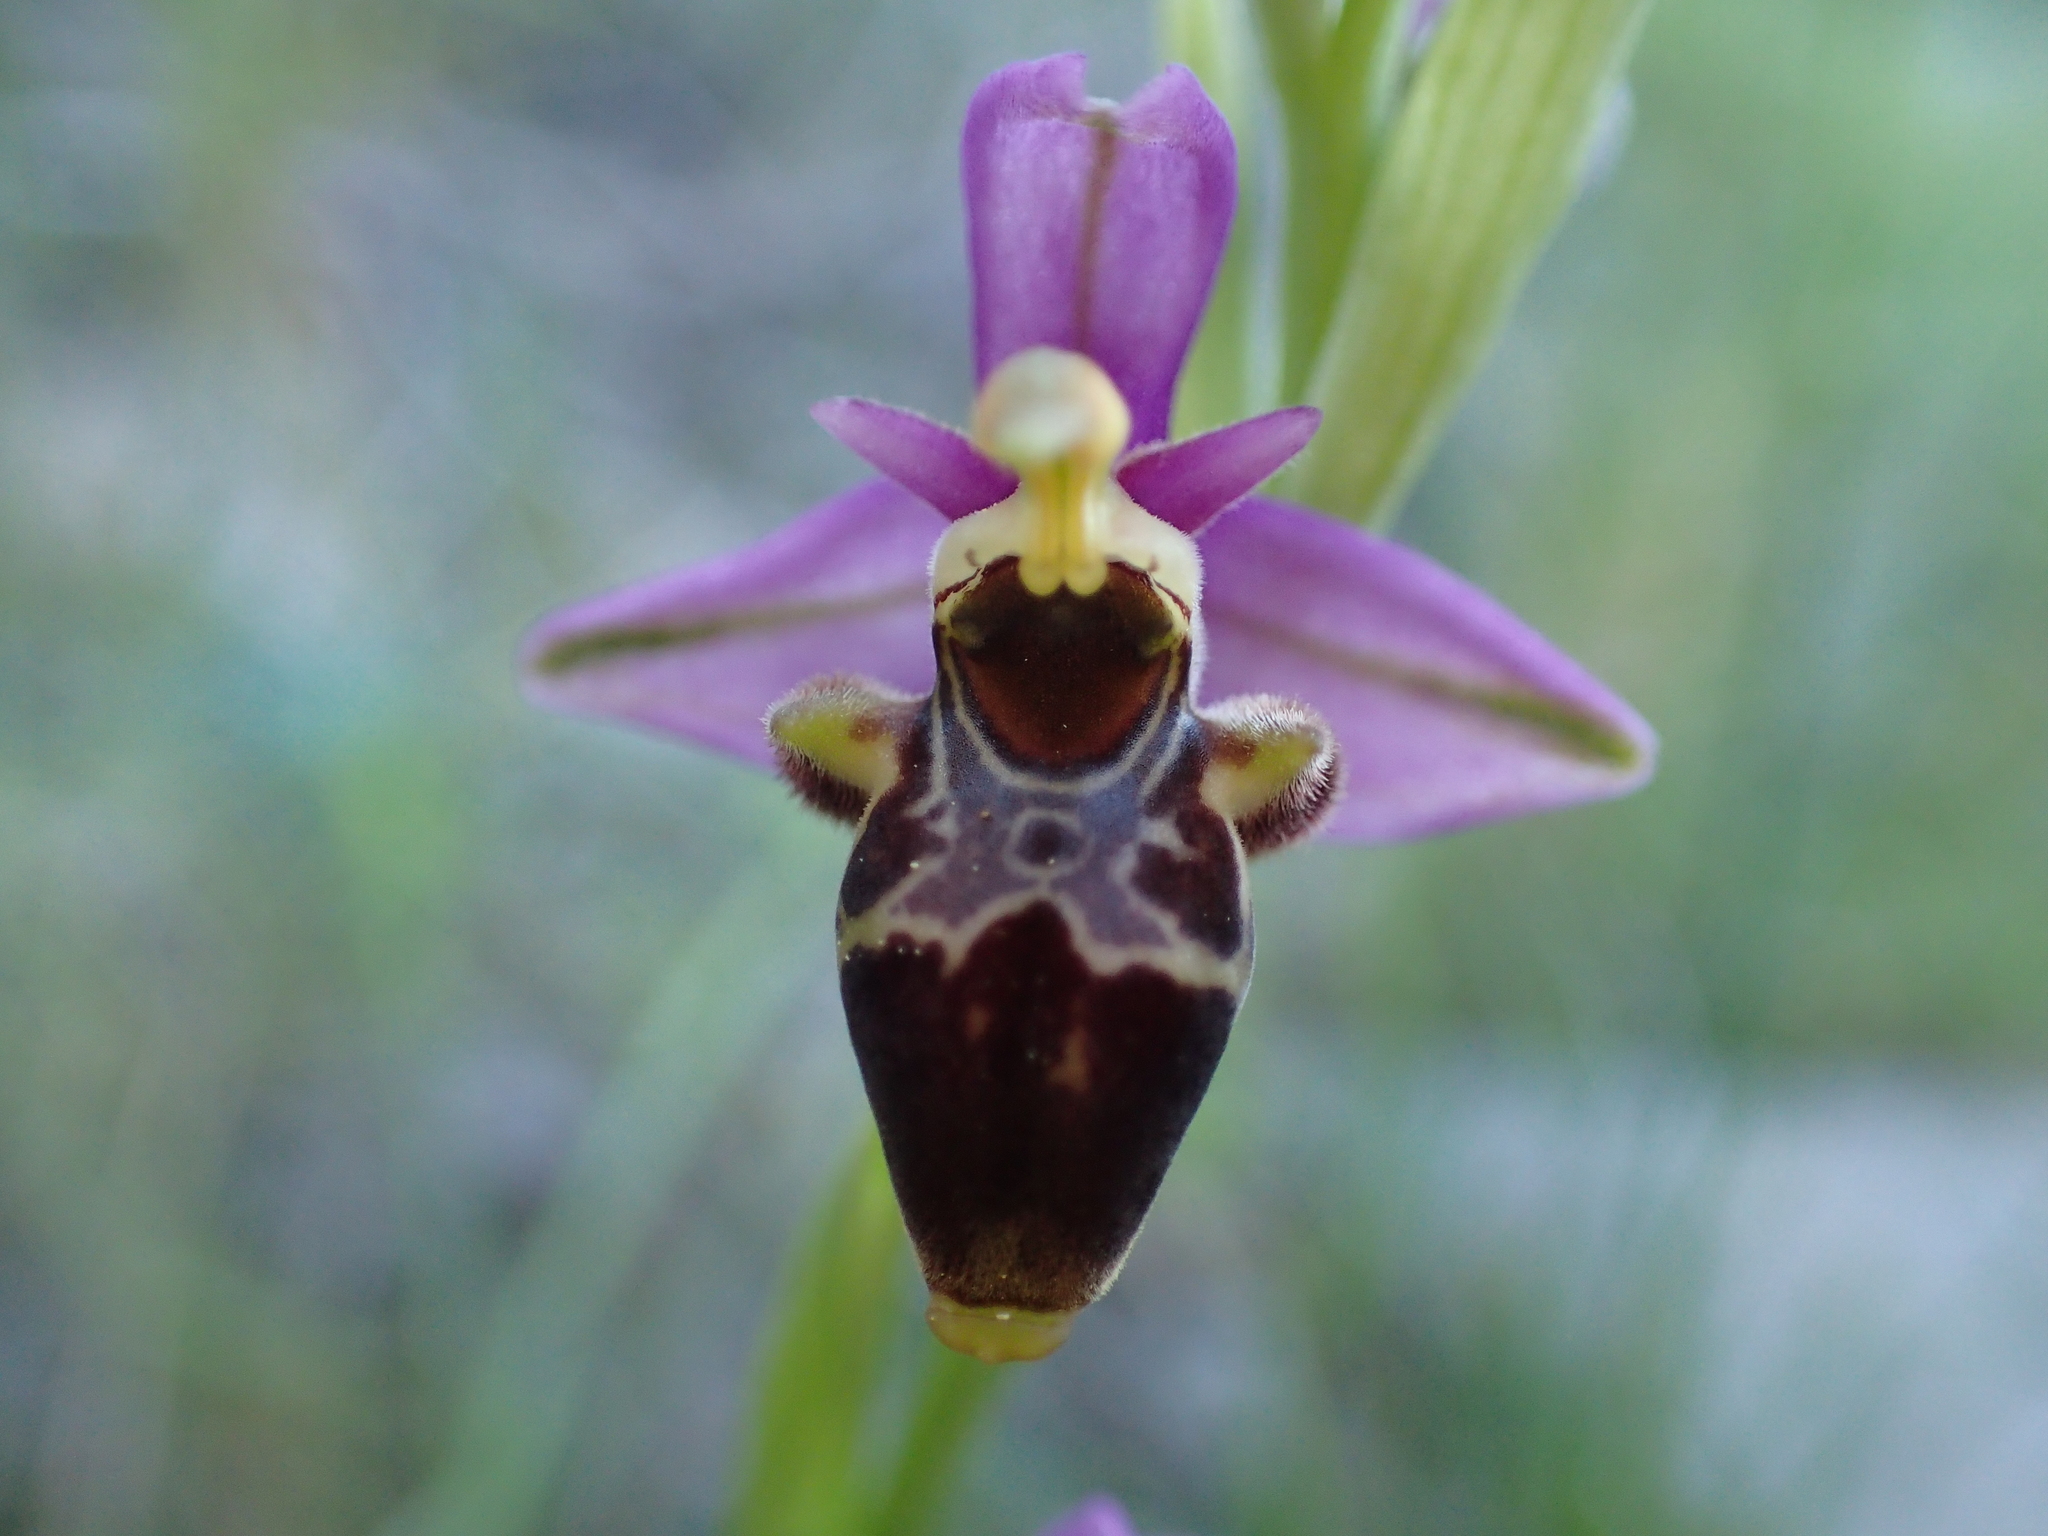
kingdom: Plantae
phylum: Tracheophyta
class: Liliopsida
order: Asparagales
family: Orchidaceae
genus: Ophrys
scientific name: Ophrys scolopax
